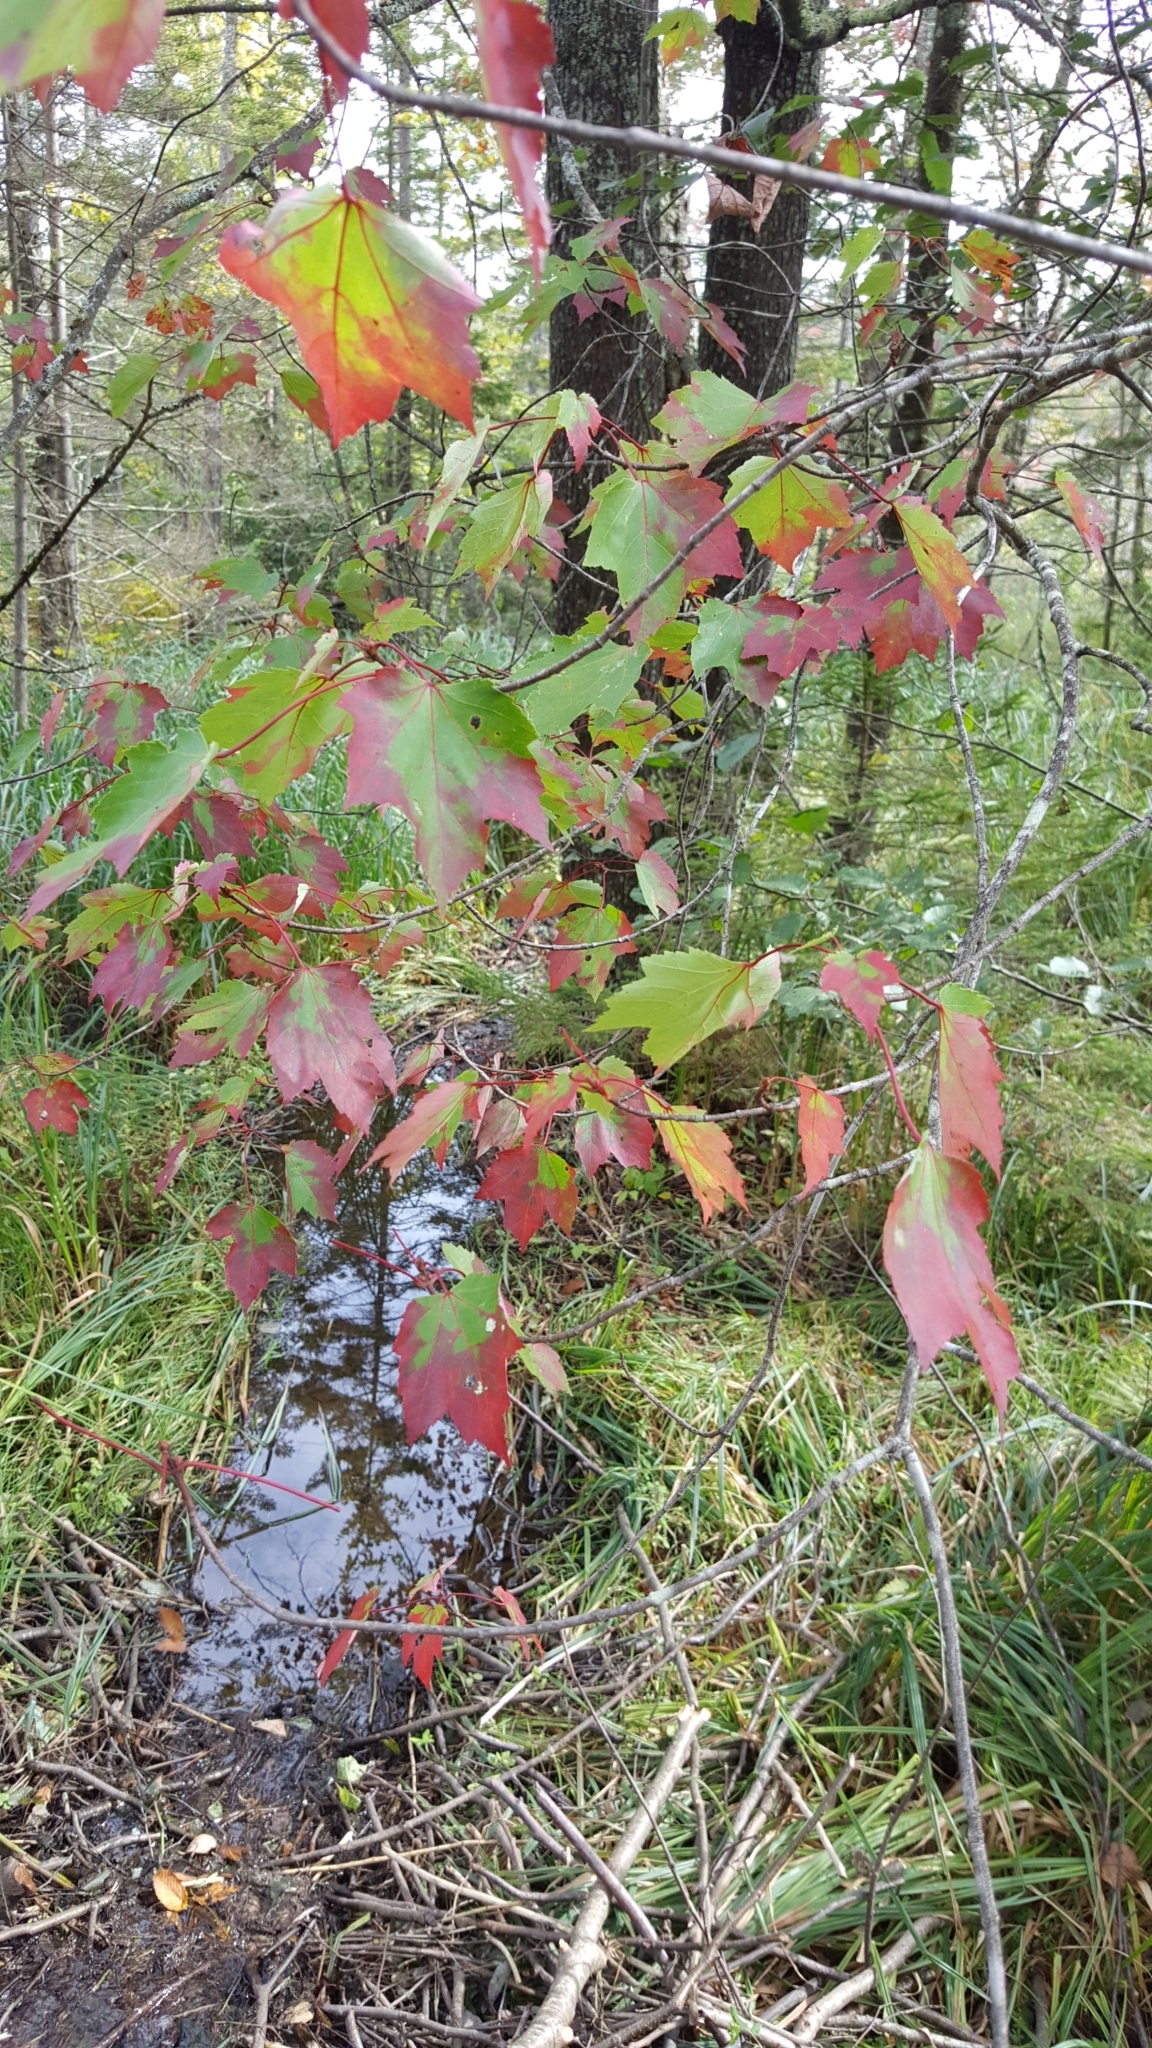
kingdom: Plantae
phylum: Tracheophyta
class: Magnoliopsida
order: Sapindales
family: Sapindaceae
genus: Acer
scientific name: Acer rubrum
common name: Red maple
